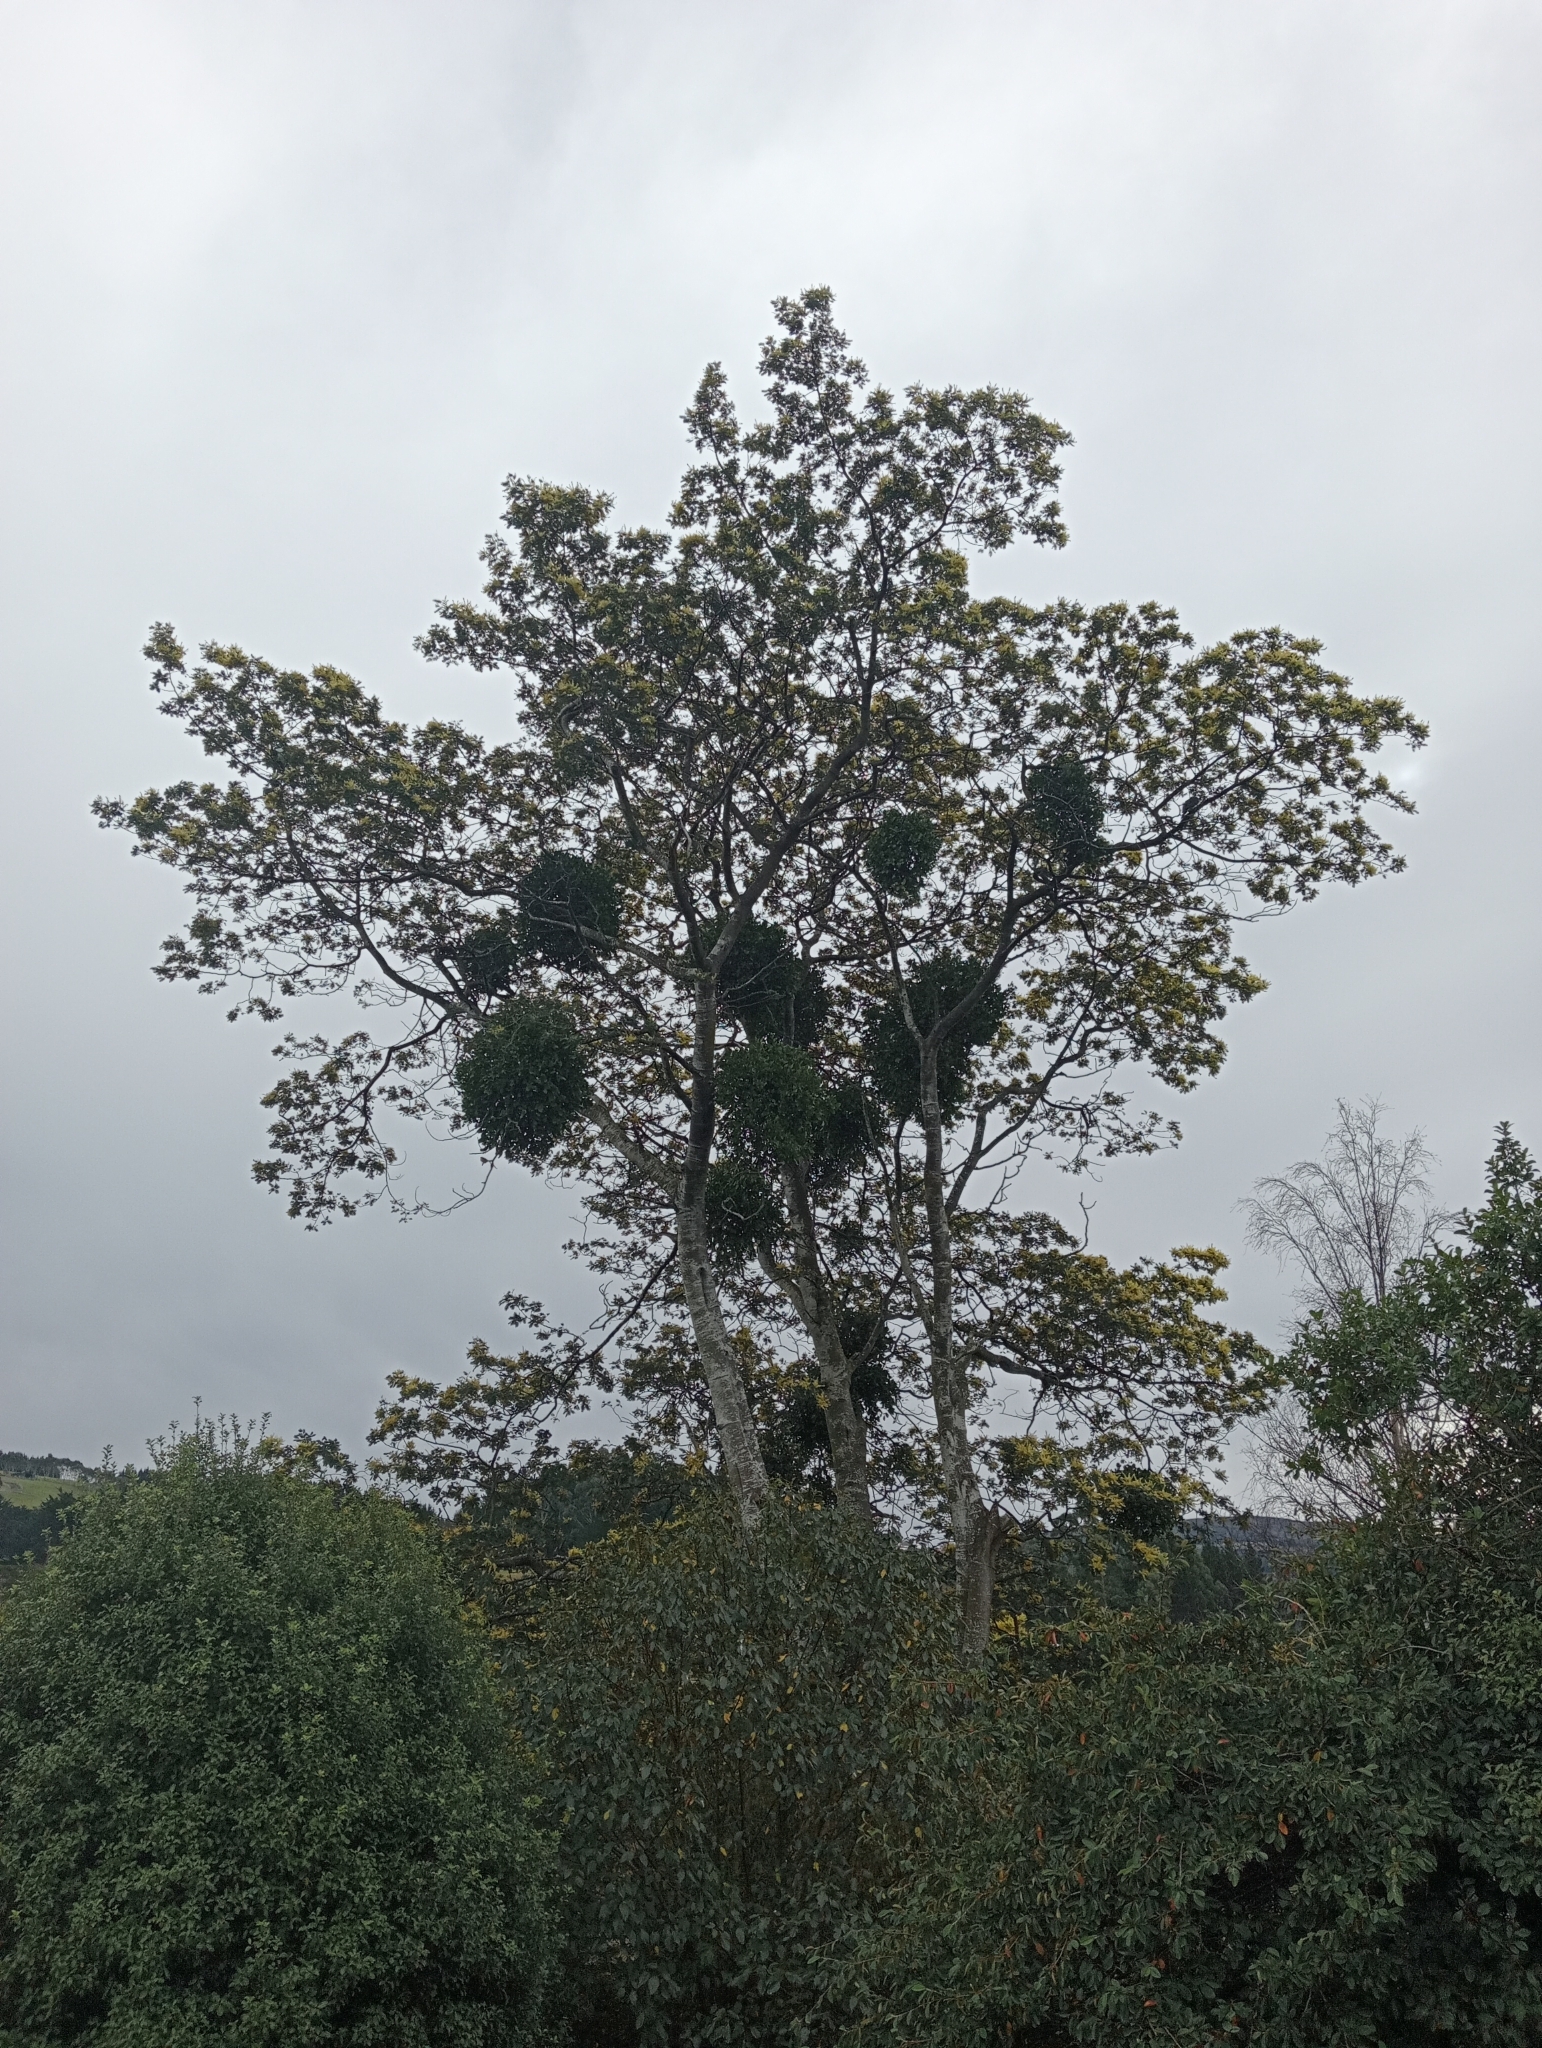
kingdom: Plantae
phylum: Tracheophyta
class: Magnoliopsida
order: Santalales
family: Loranthaceae
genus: Ileostylus
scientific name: Ileostylus micranthus
